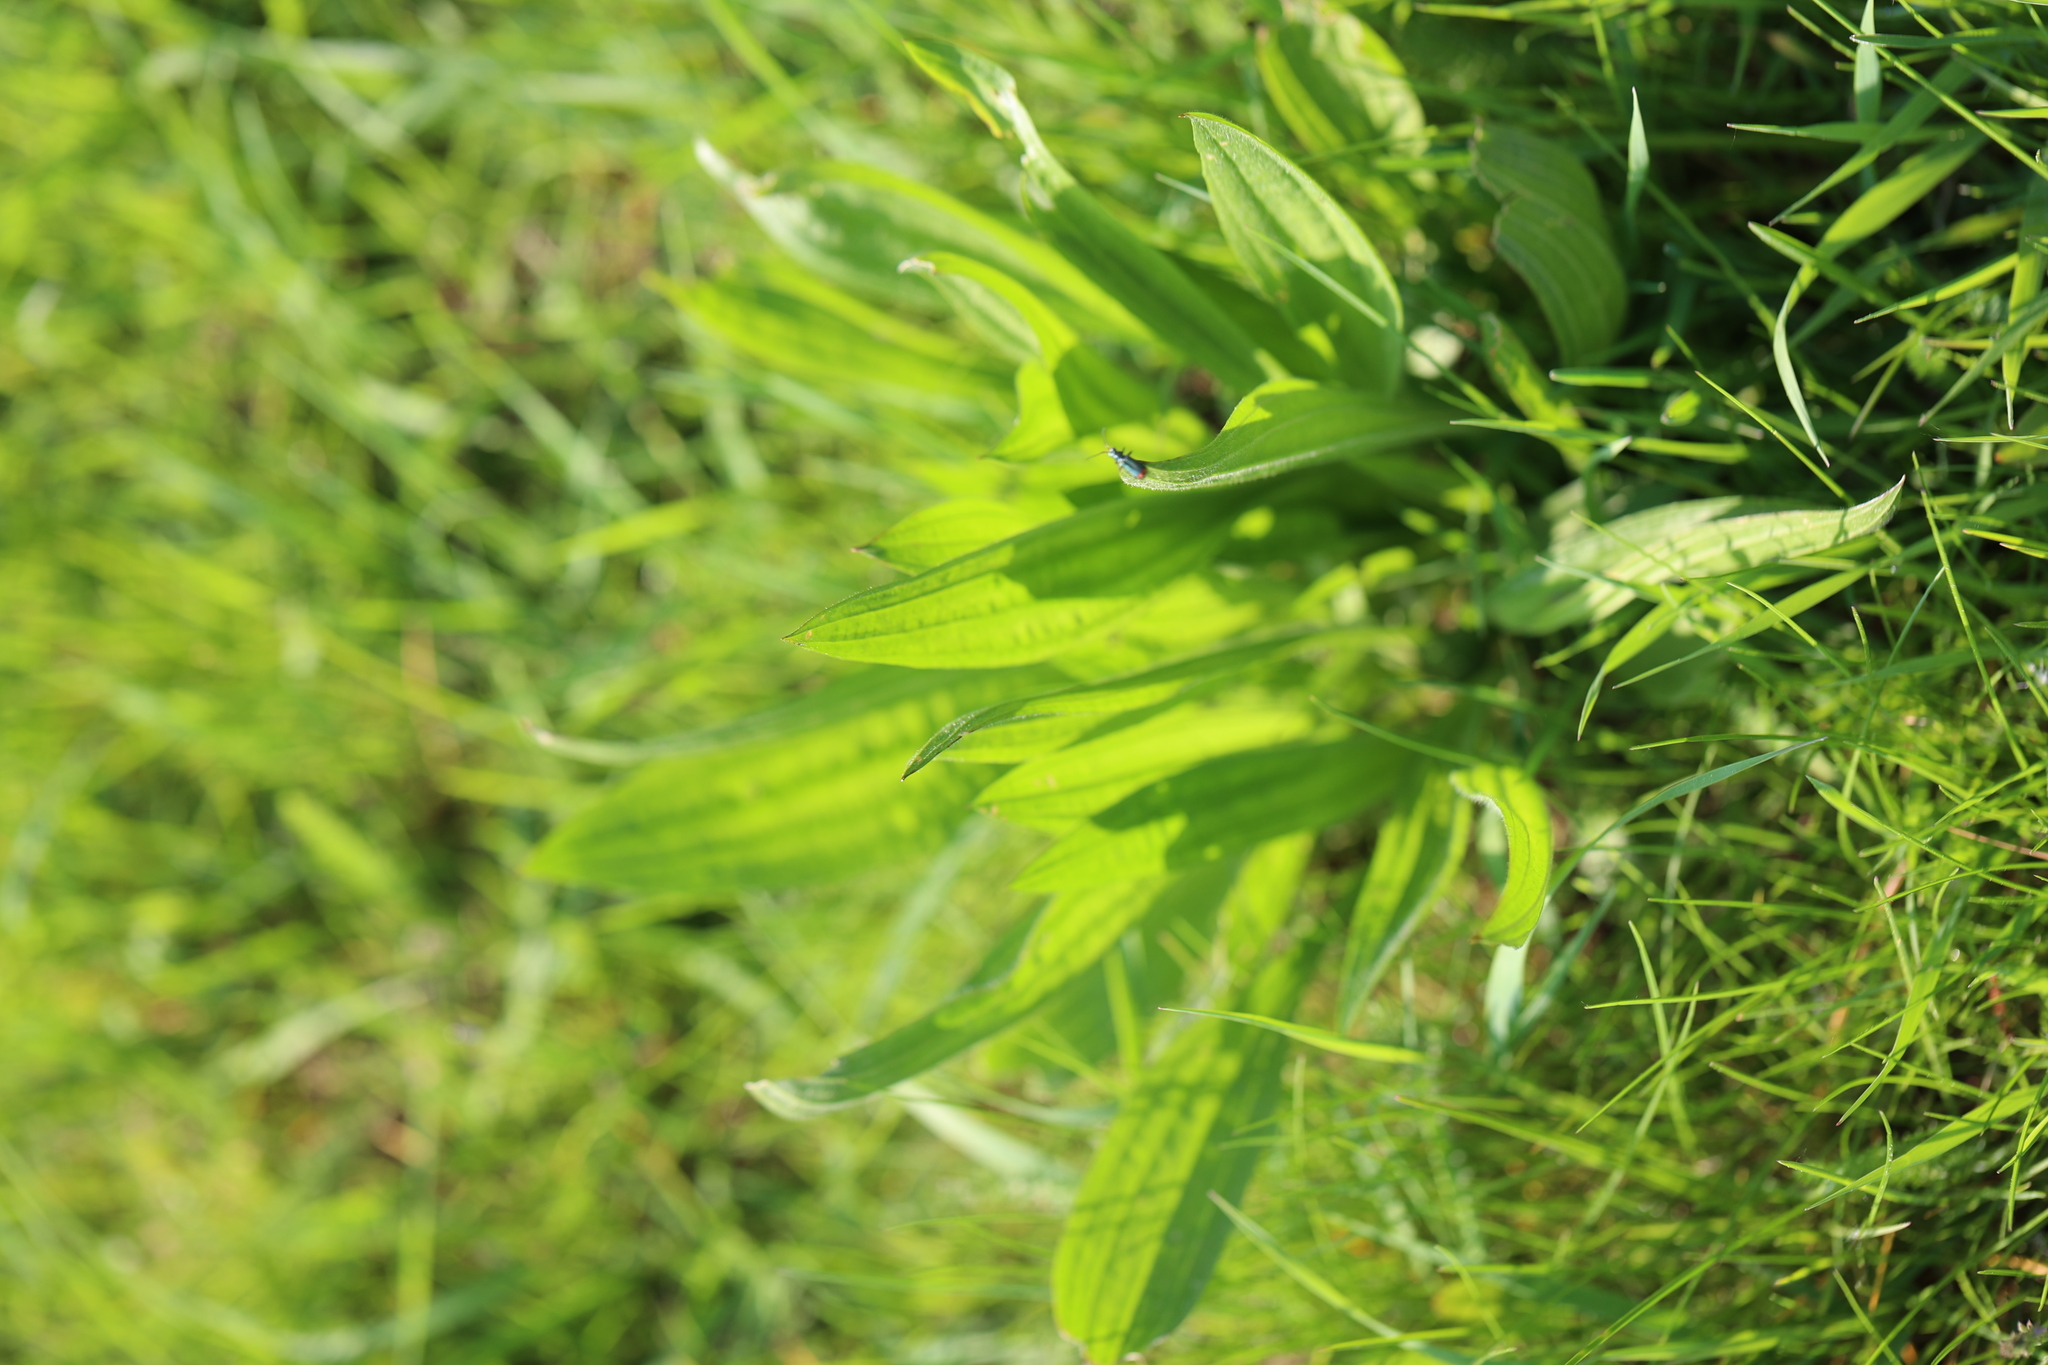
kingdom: Plantae
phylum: Tracheophyta
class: Magnoliopsida
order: Lamiales
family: Plantaginaceae
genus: Plantago
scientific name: Plantago lanceolata
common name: Ribwort plantain
